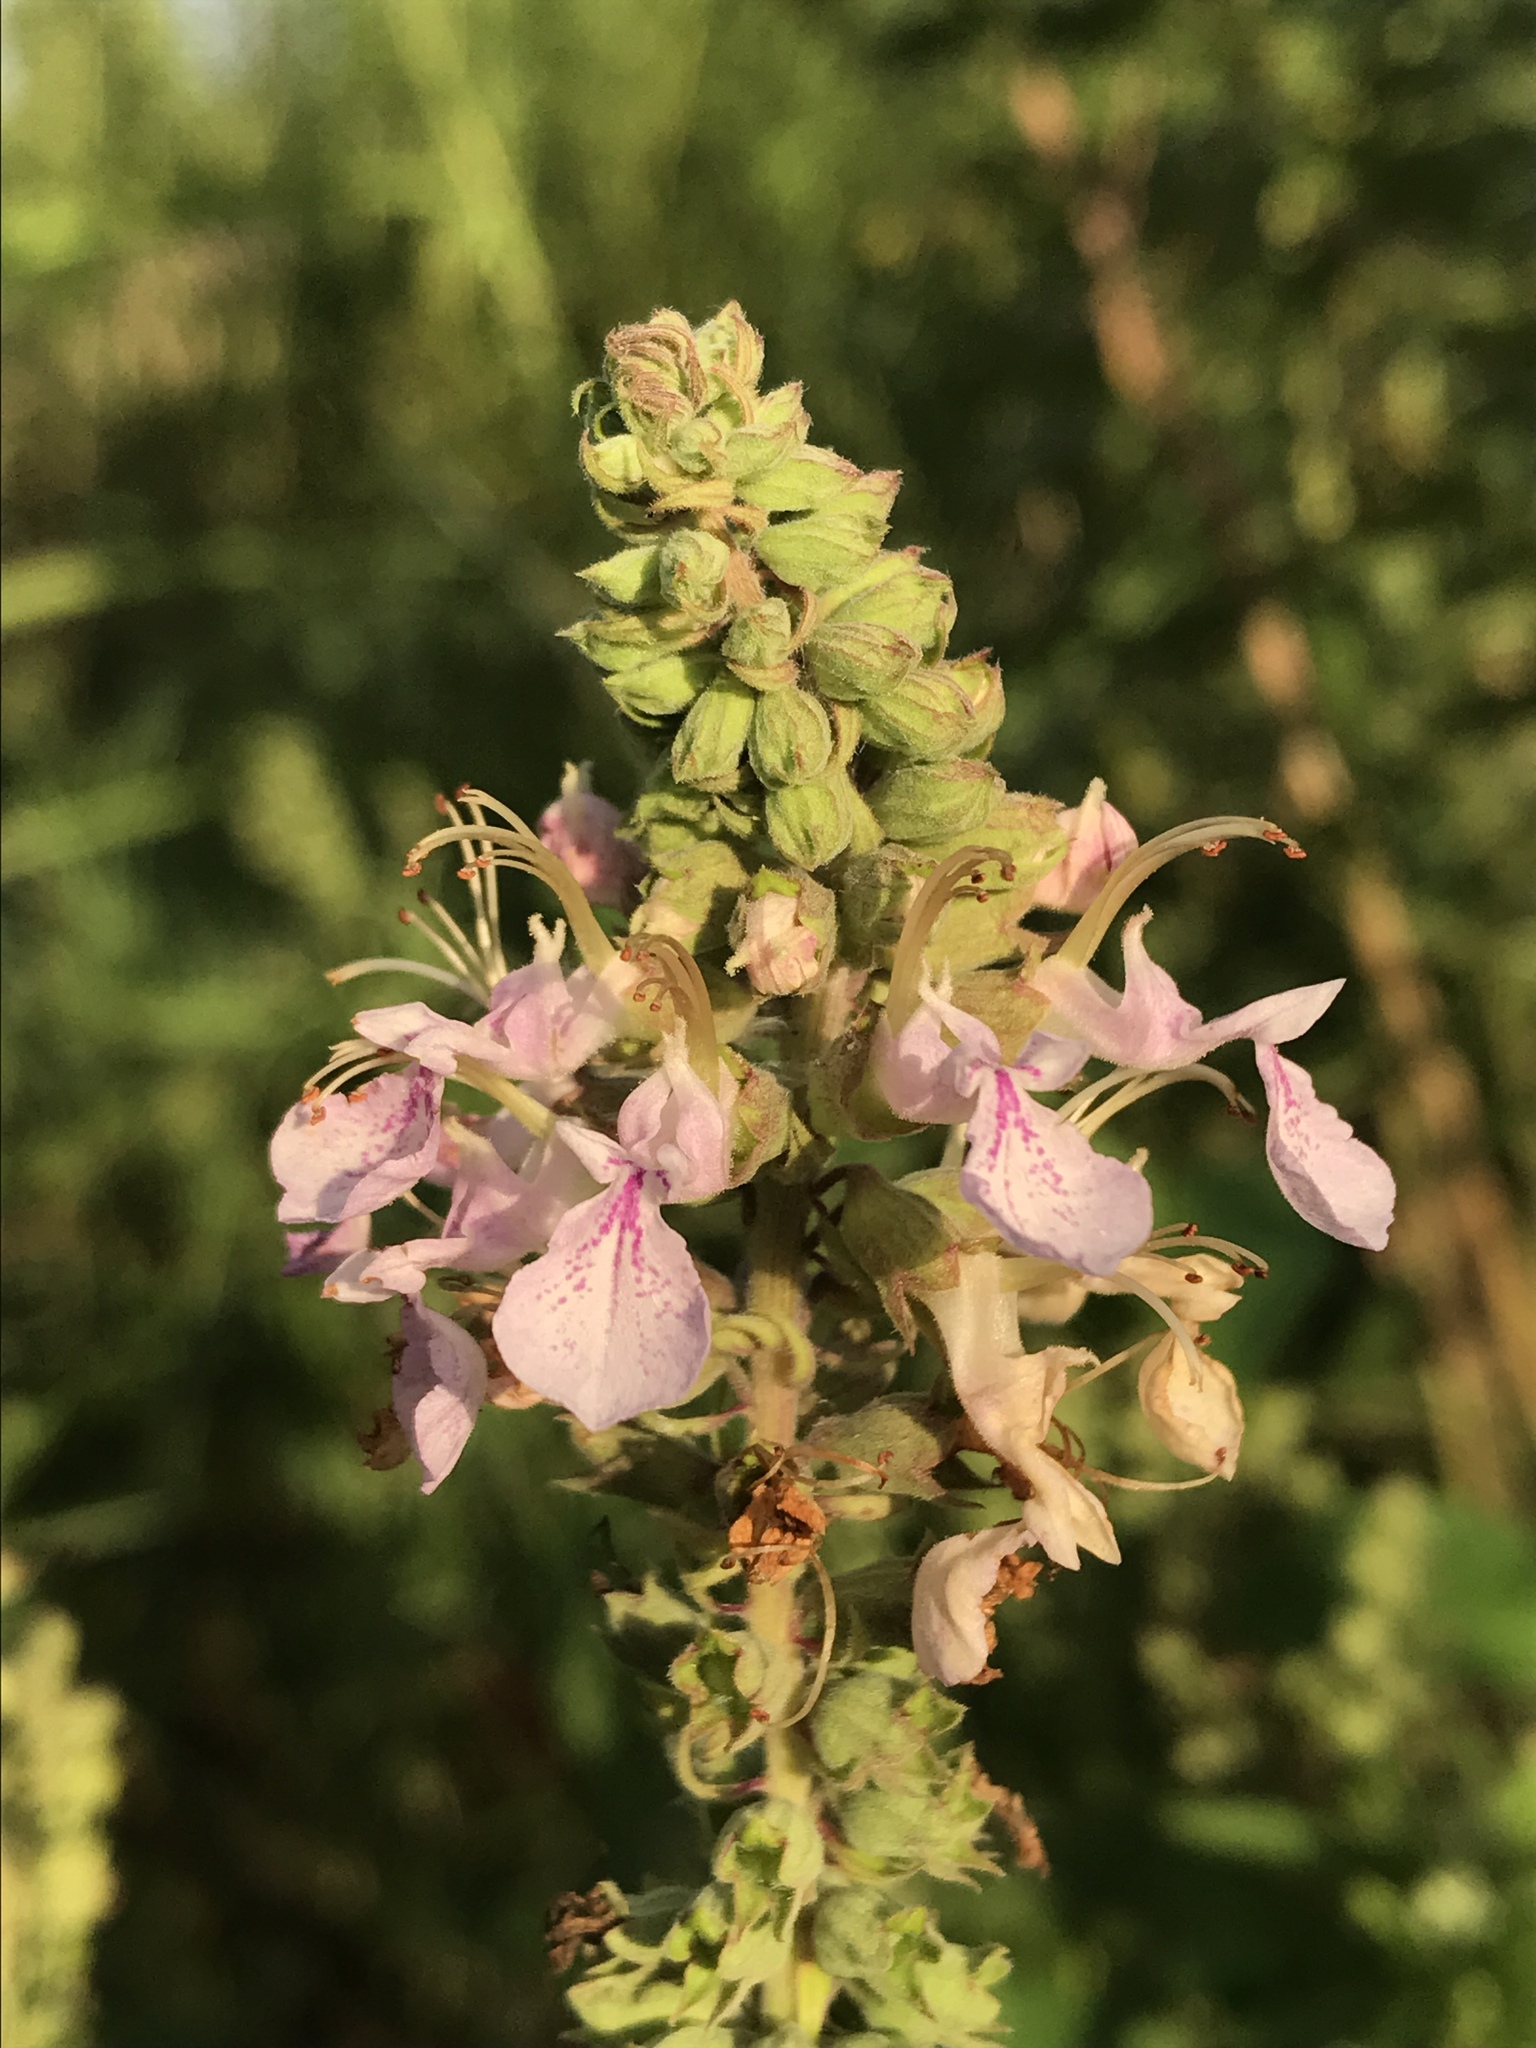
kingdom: Plantae
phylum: Tracheophyta
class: Magnoliopsida
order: Lamiales
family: Lamiaceae
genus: Teucrium
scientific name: Teucrium canadense
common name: American germander
